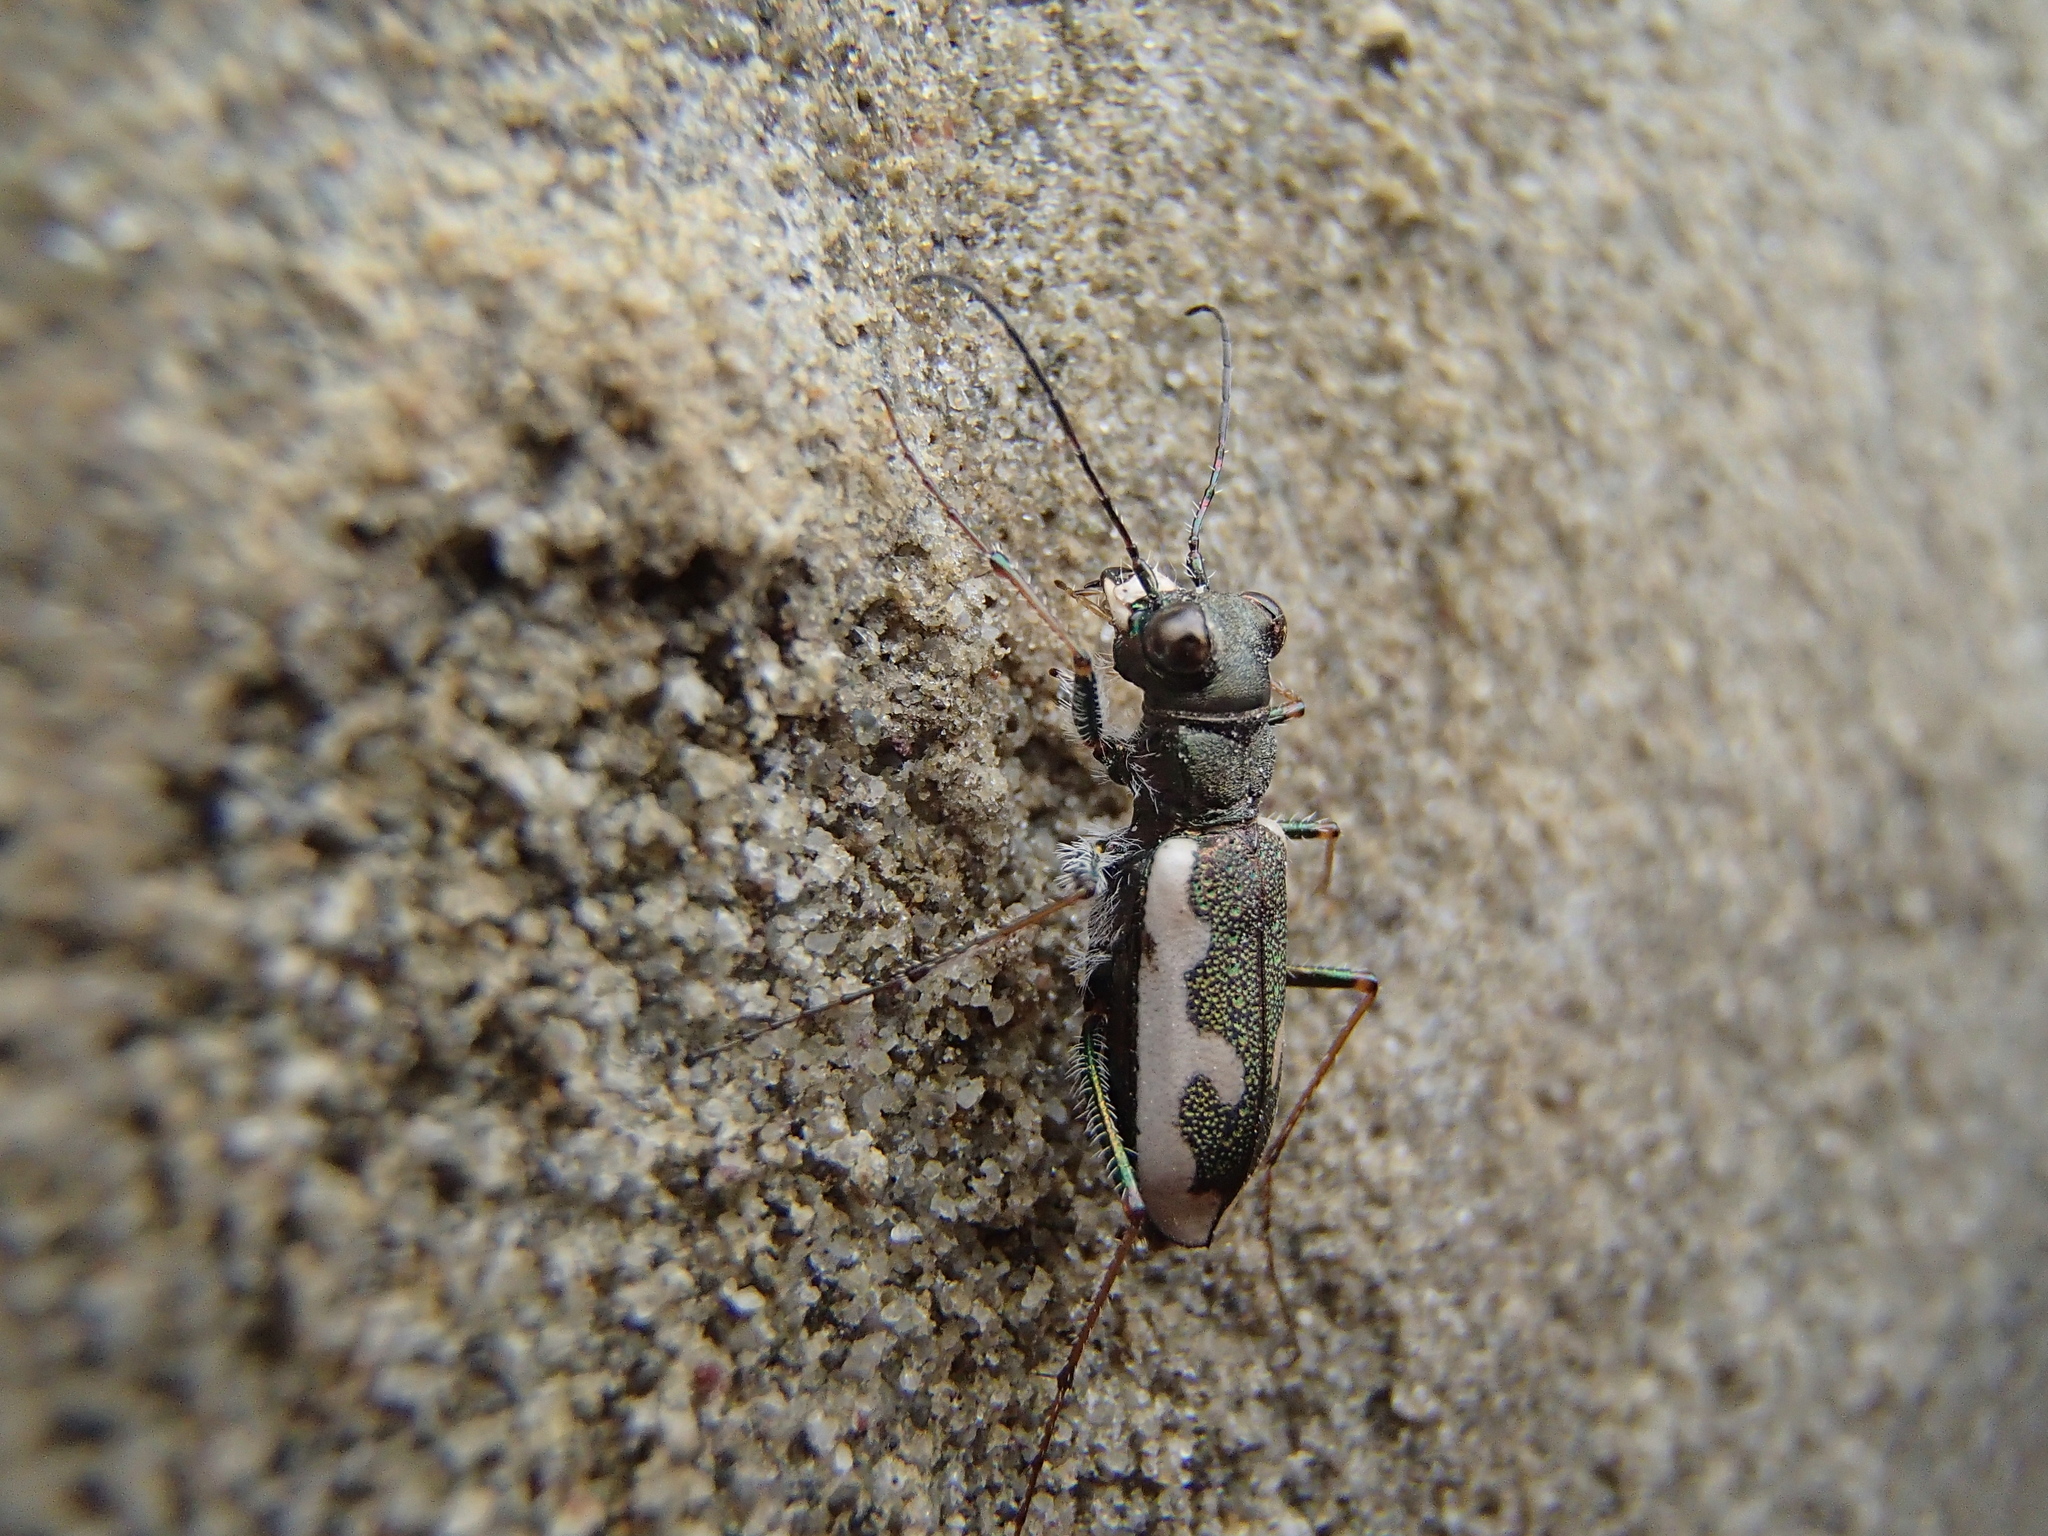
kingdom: Animalia
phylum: Arthropoda
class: Insecta
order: Coleoptera
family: Carabidae
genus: Neocicindela
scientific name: Neocicindela latecincta
